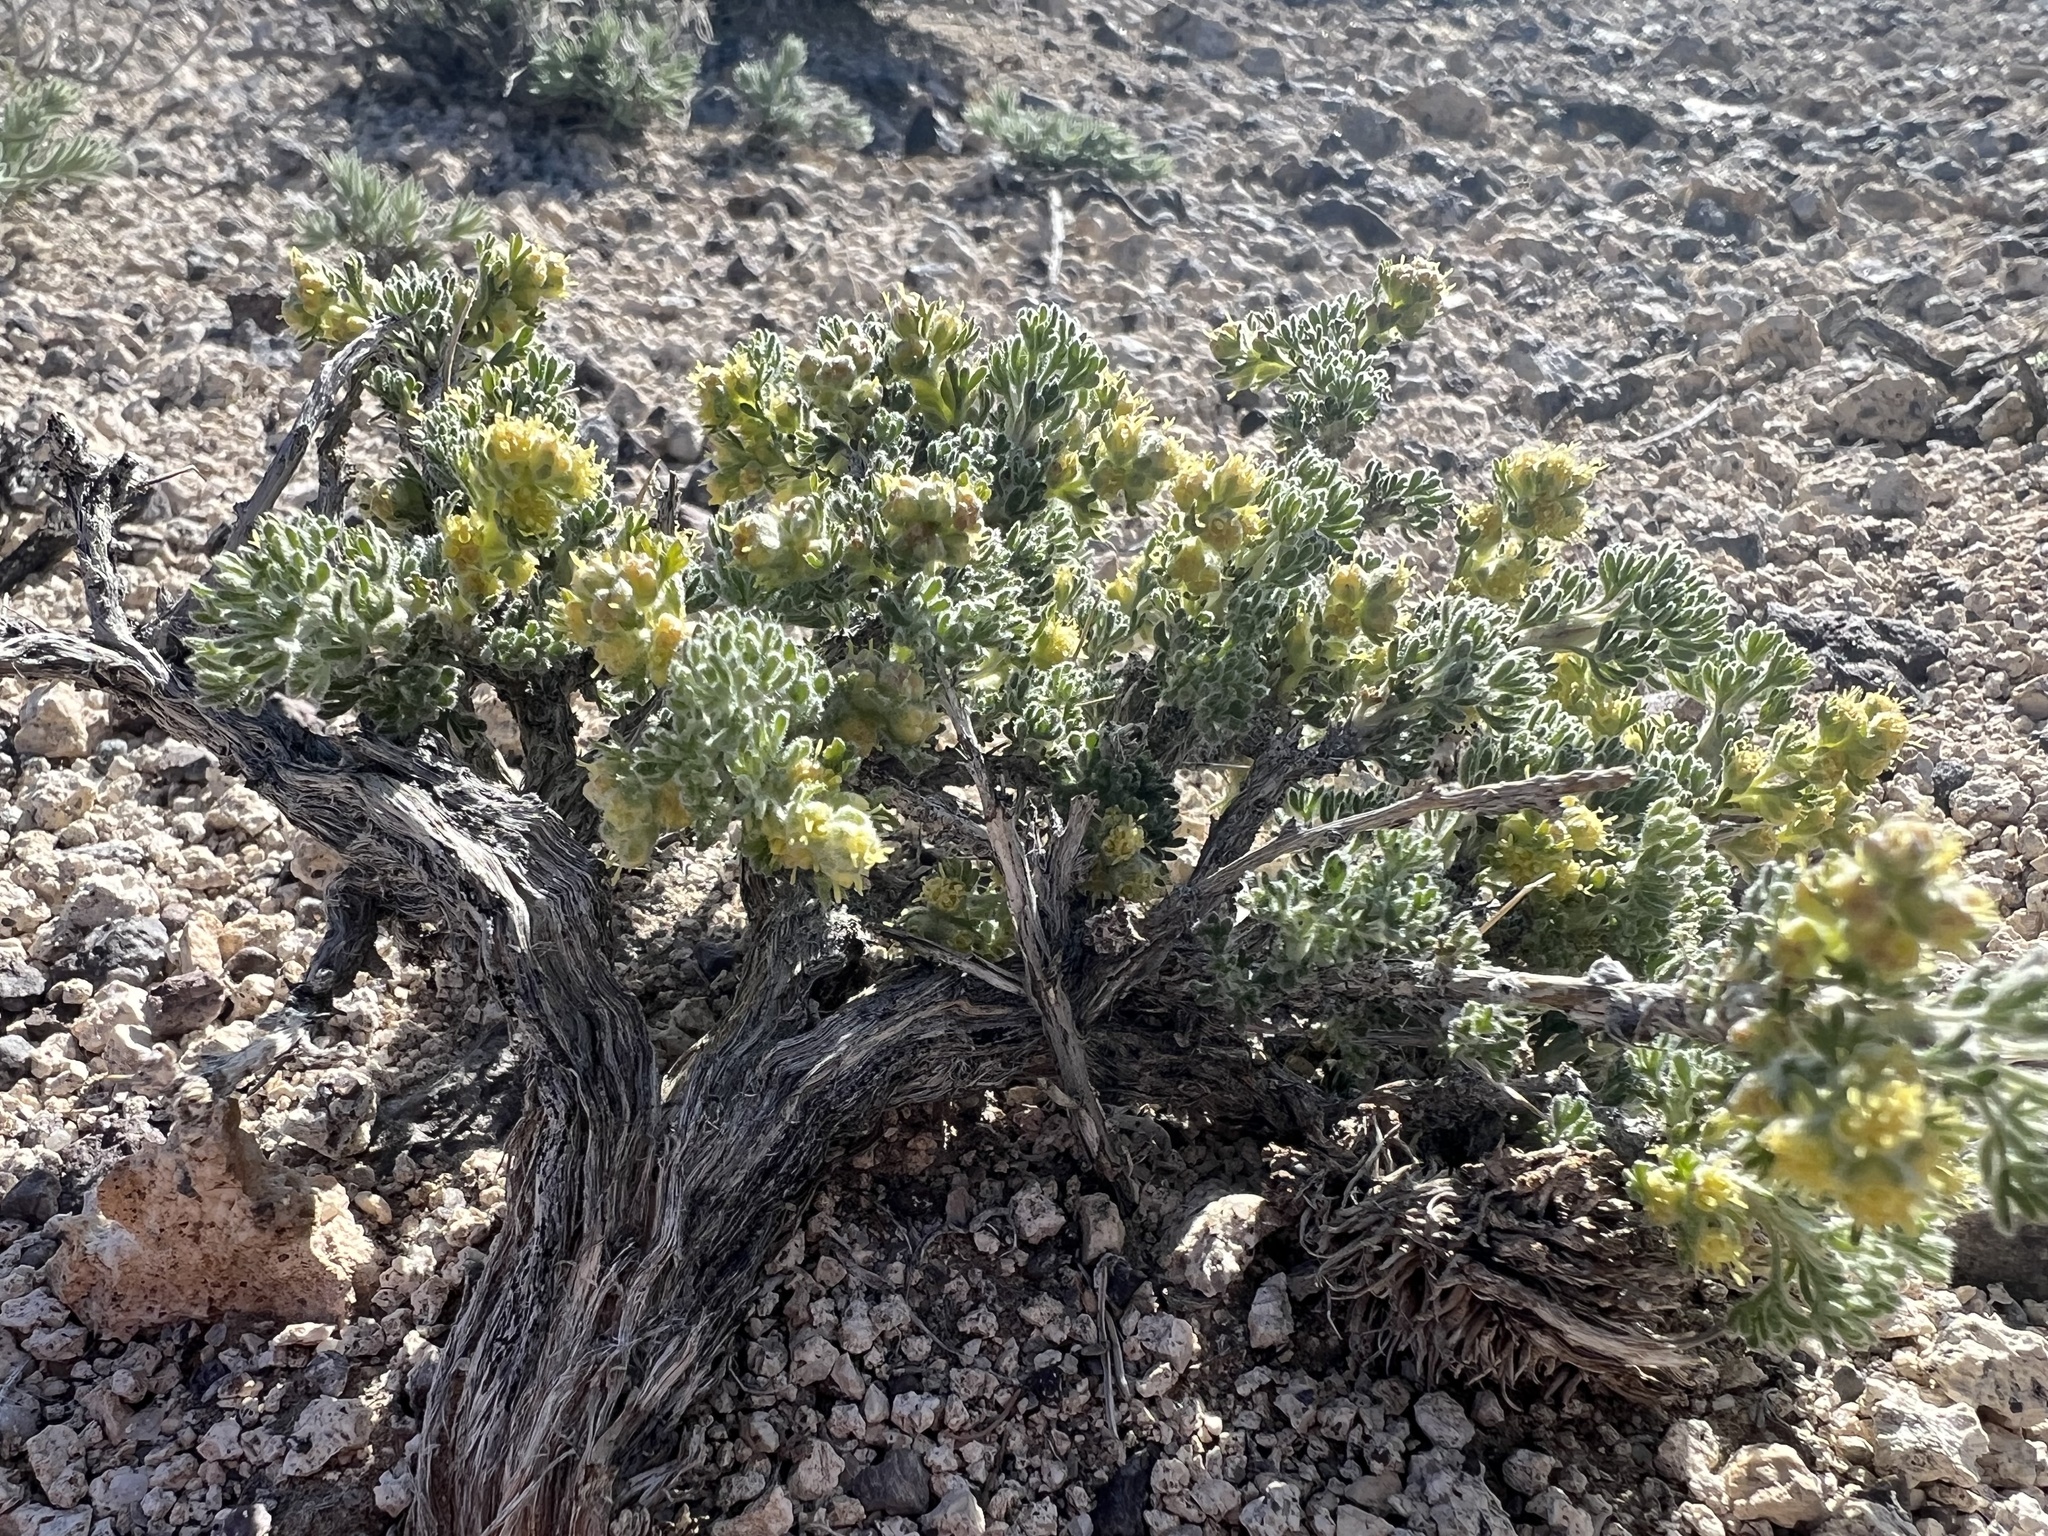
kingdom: Plantae
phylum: Tracheophyta
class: Magnoliopsida
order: Asterales
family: Asteraceae
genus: Artemisia
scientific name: Artemisia spinescens
